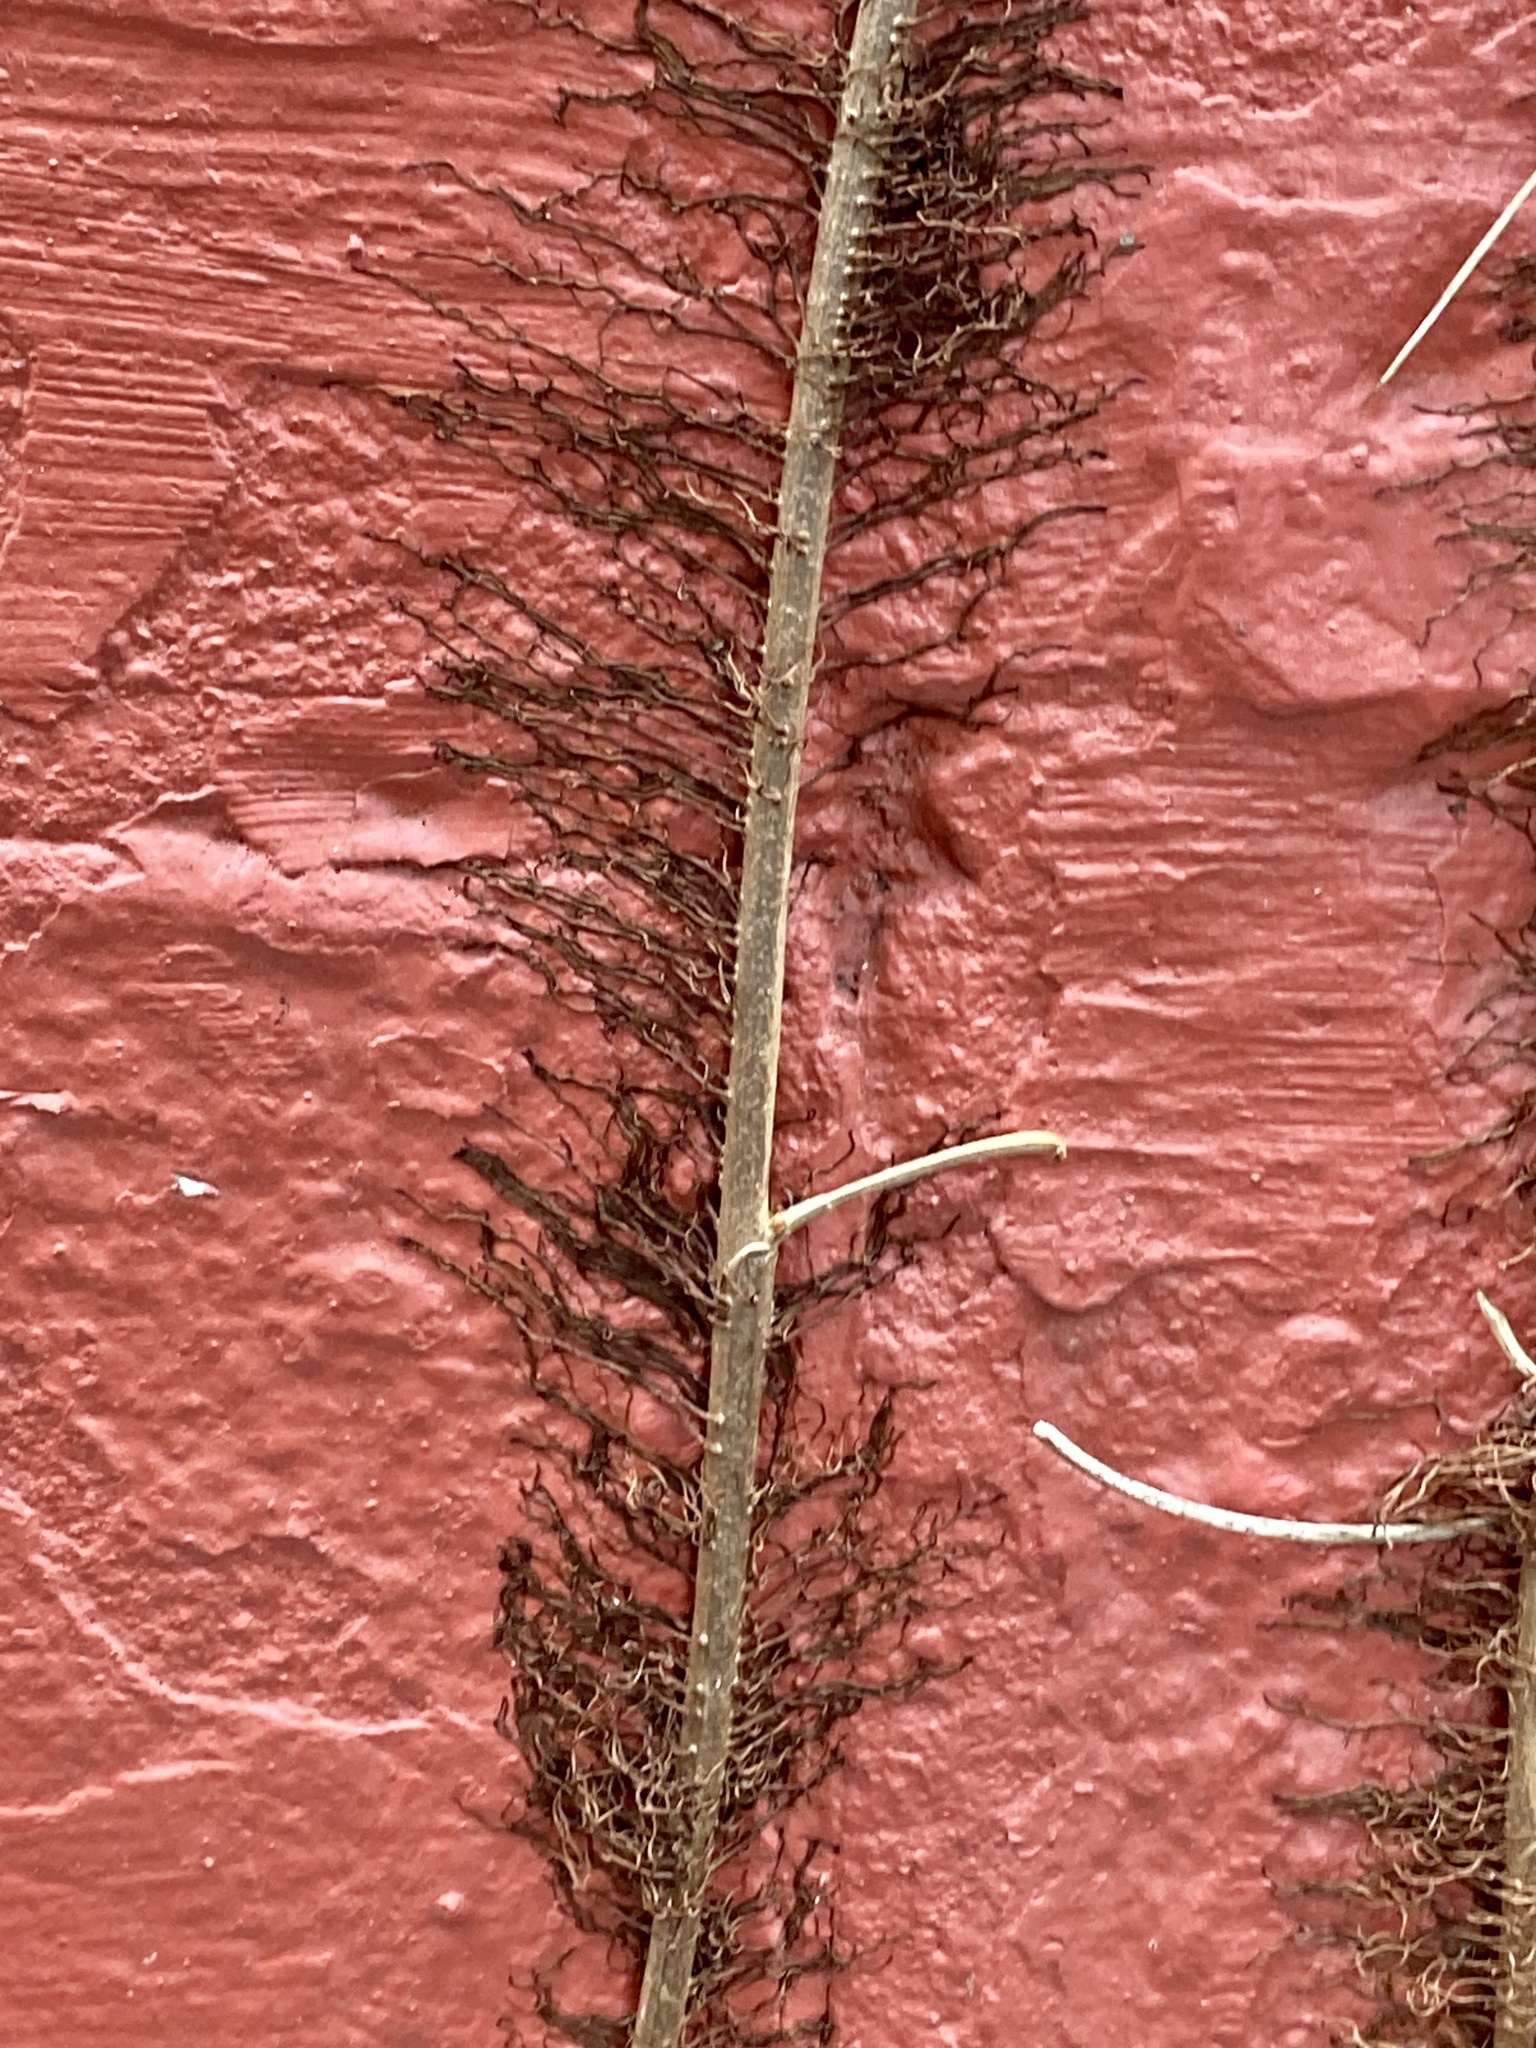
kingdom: Plantae
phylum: Tracheophyta
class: Magnoliopsida
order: Sapindales
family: Anacardiaceae
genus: Toxicodendron
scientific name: Toxicodendron radicans
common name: Poison ivy
